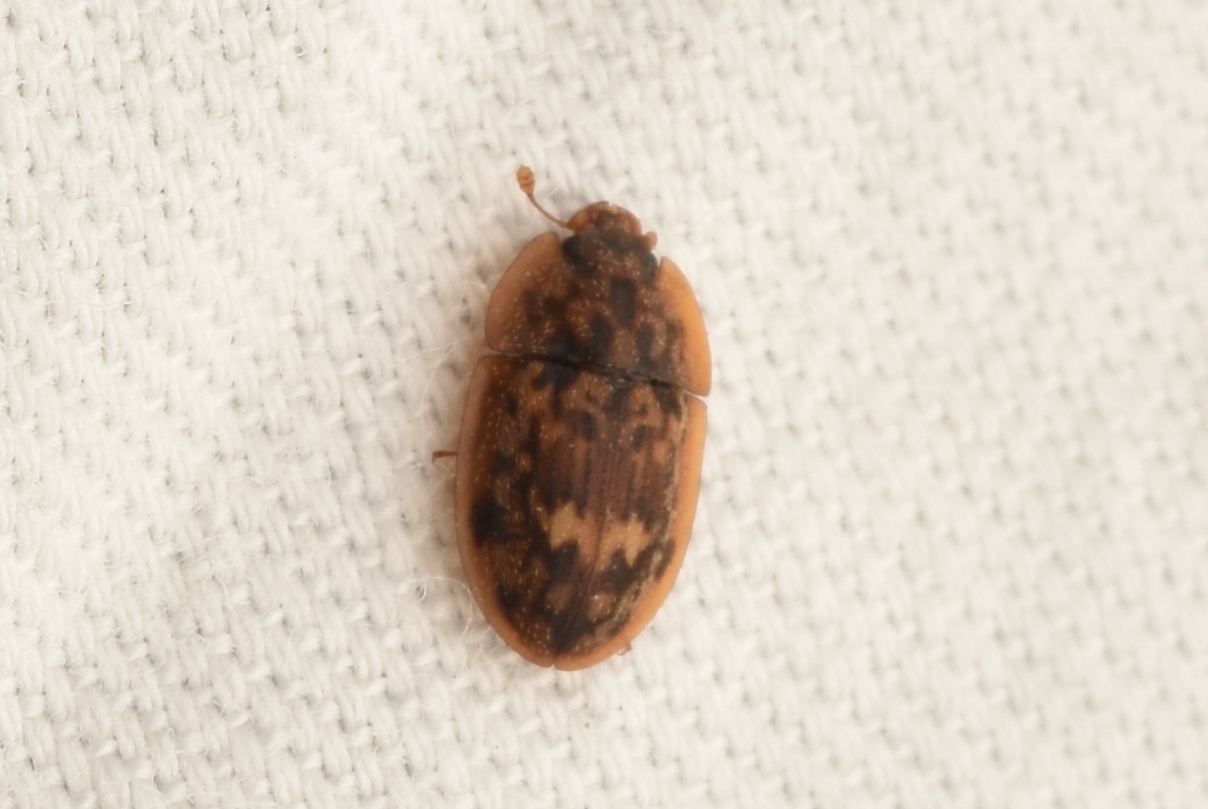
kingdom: Animalia
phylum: Arthropoda
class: Insecta
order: Coleoptera
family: Nitidulidae
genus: Lobiopa
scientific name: Lobiopa undulata
